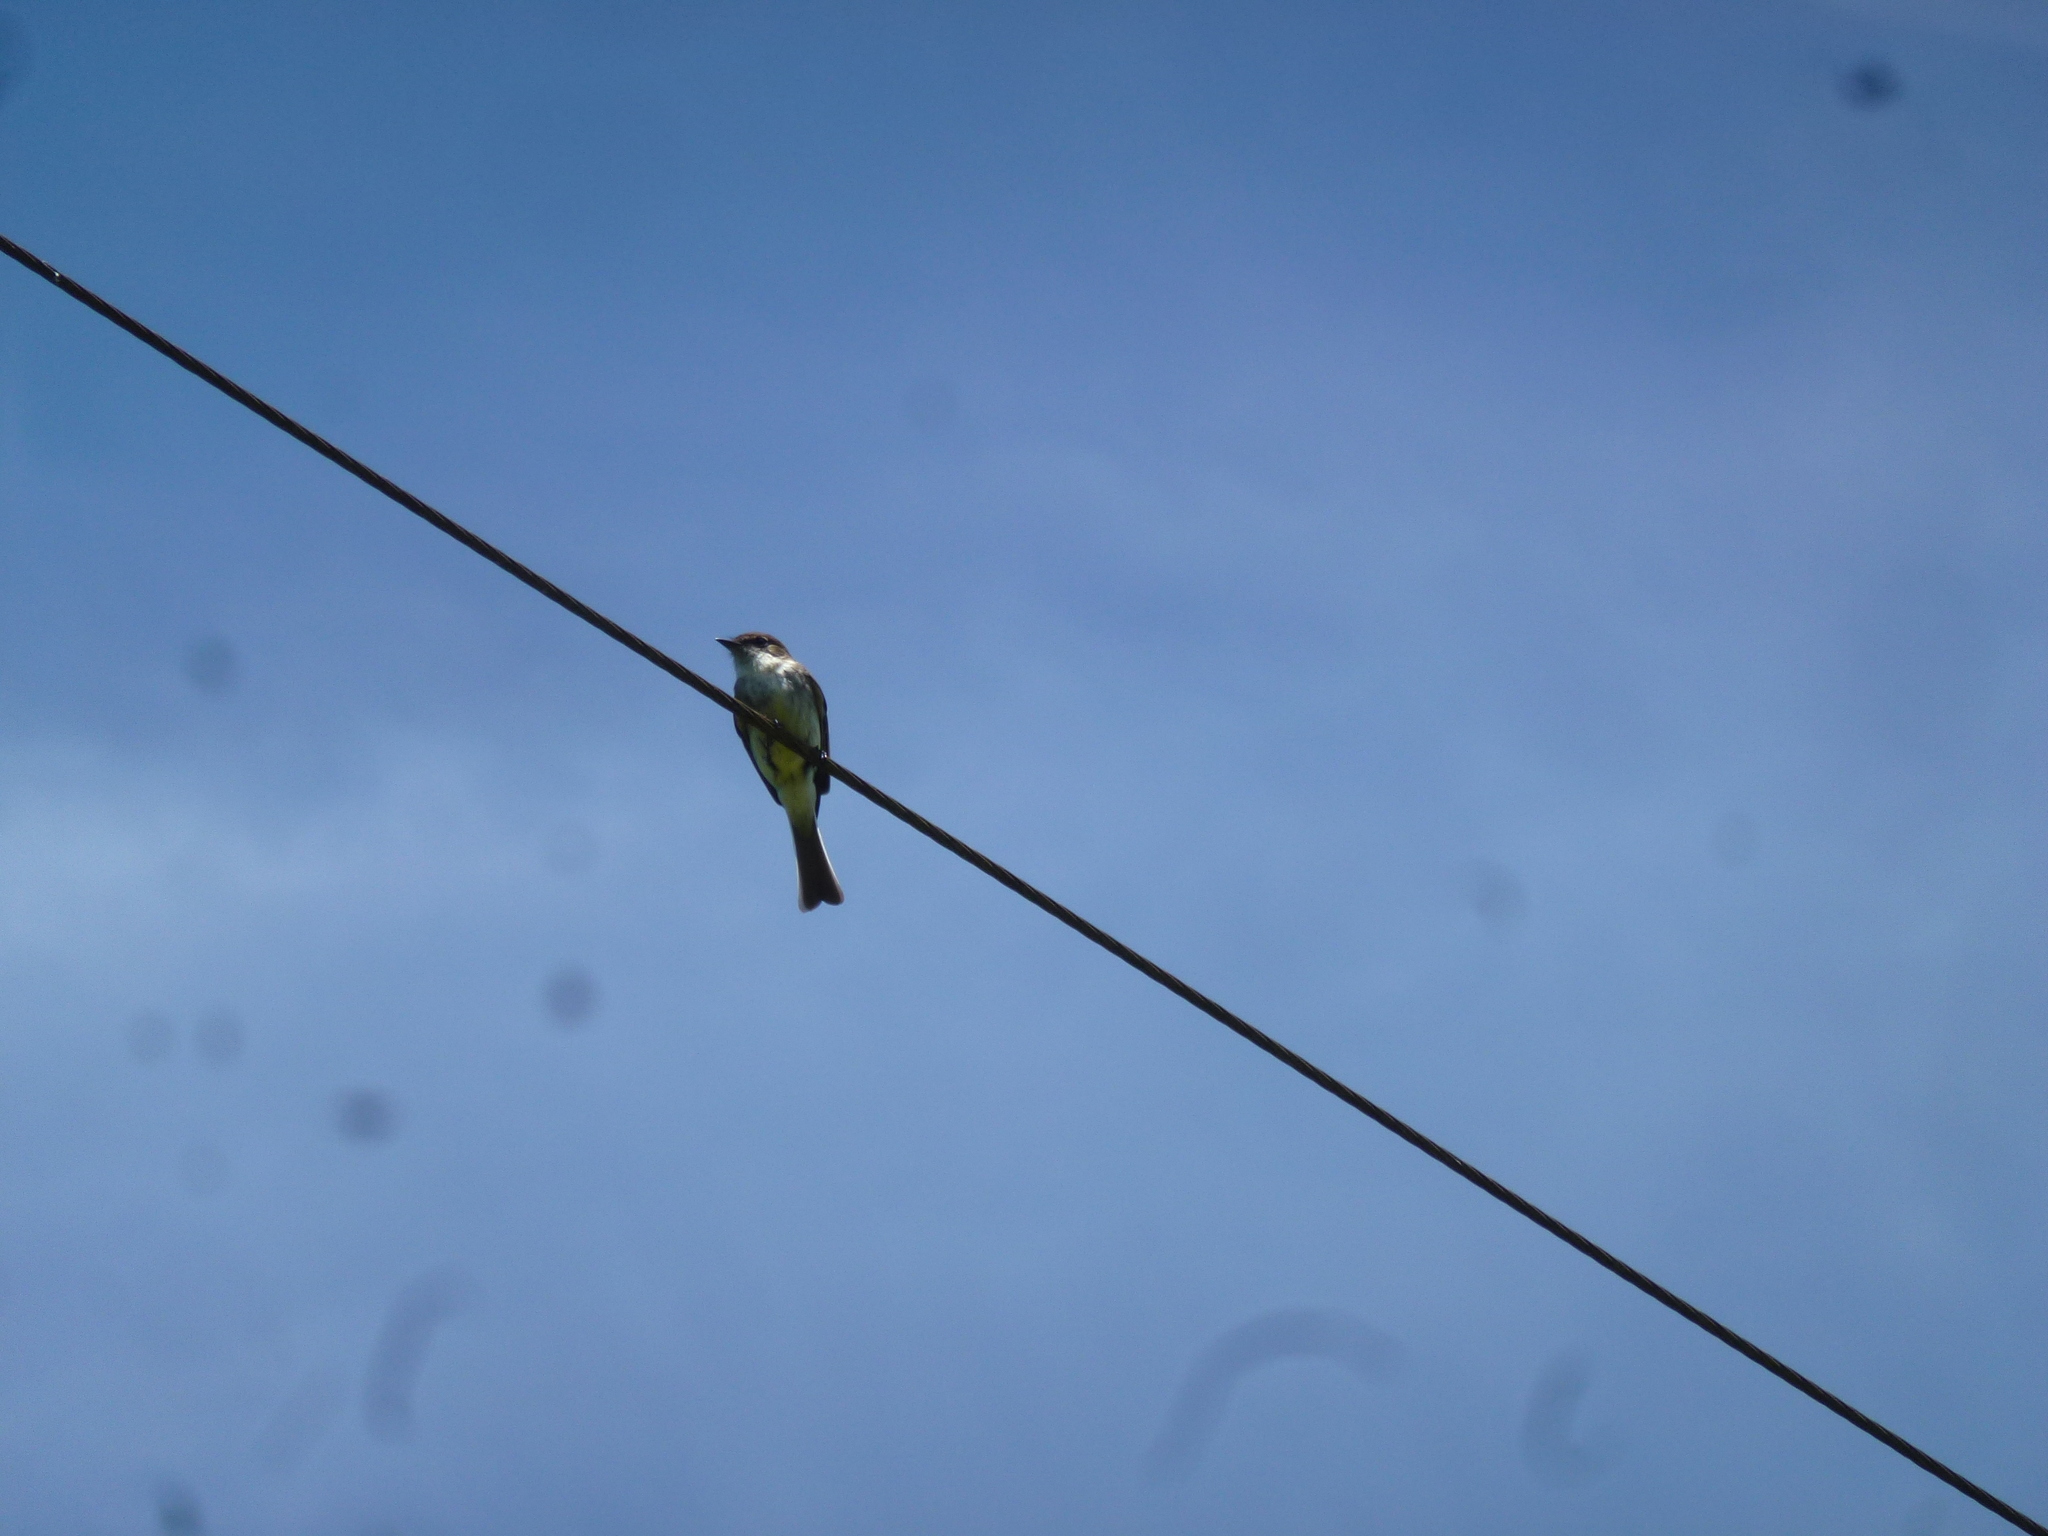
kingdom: Animalia
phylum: Chordata
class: Aves
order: Passeriformes
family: Tyrannidae
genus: Sayornis
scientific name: Sayornis phoebe
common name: Eastern phoebe
